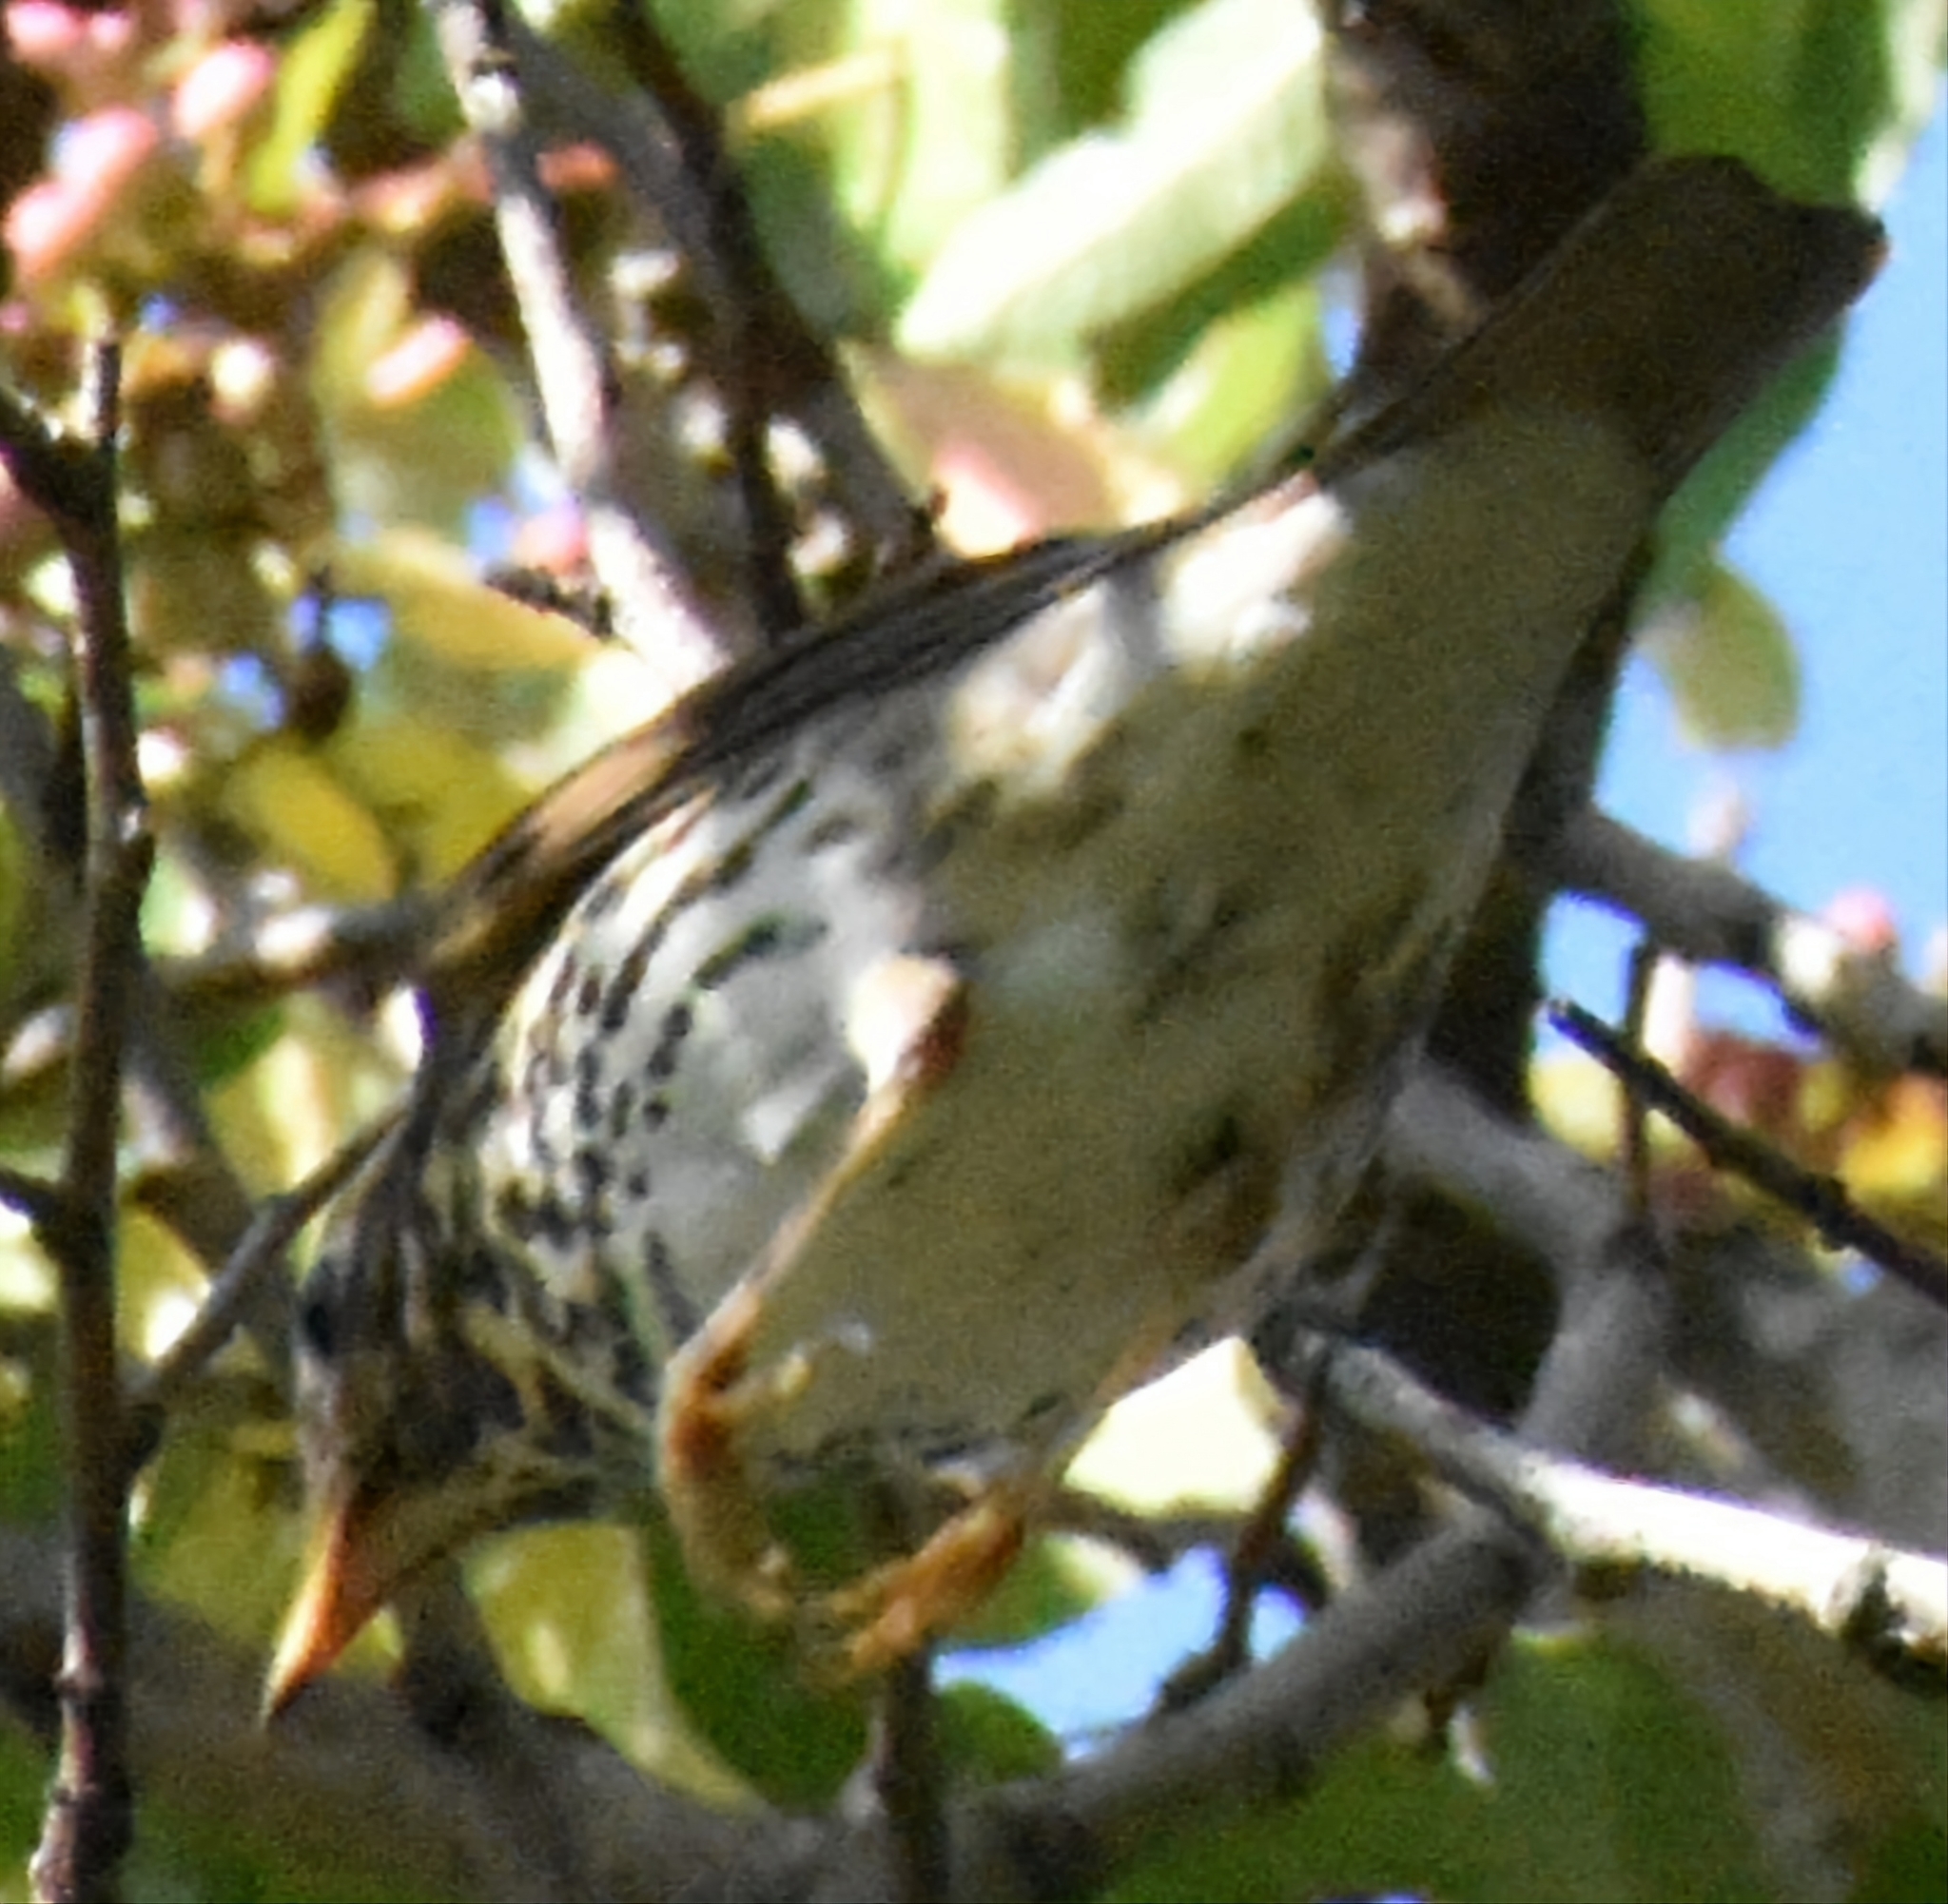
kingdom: Animalia
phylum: Chordata
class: Aves
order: Passeriformes
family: Turdidae
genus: Turdus
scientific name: Turdus philomelos
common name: Song thrush
